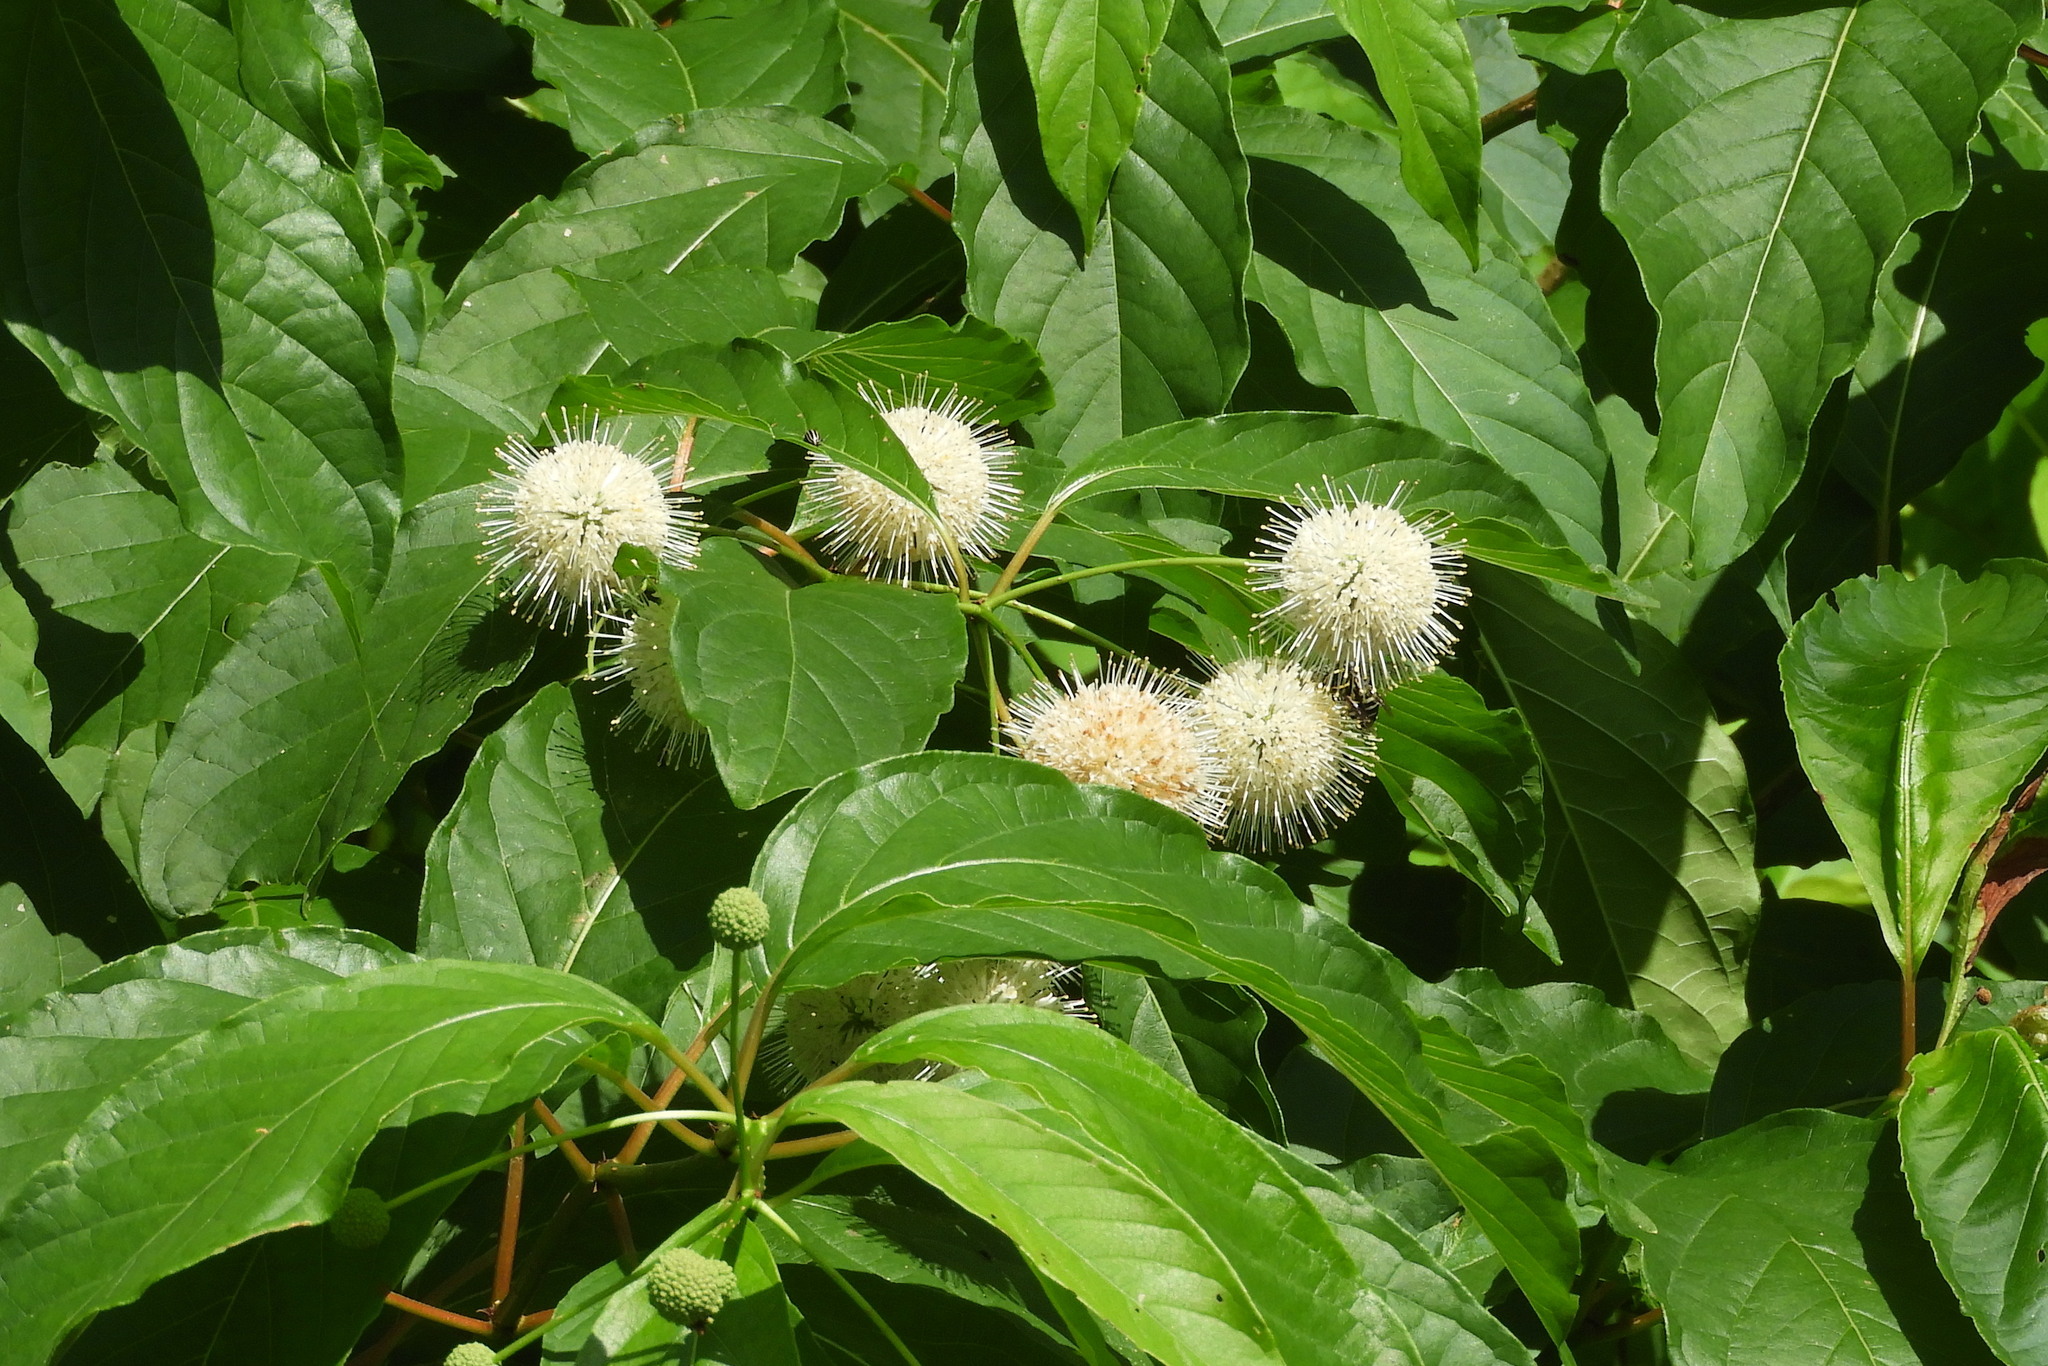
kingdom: Plantae
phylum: Tracheophyta
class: Magnoliopsida
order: Gentianales
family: Rubiaceae
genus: Cephalanthus
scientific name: Cephalanthus occidentalis
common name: Button-willow
